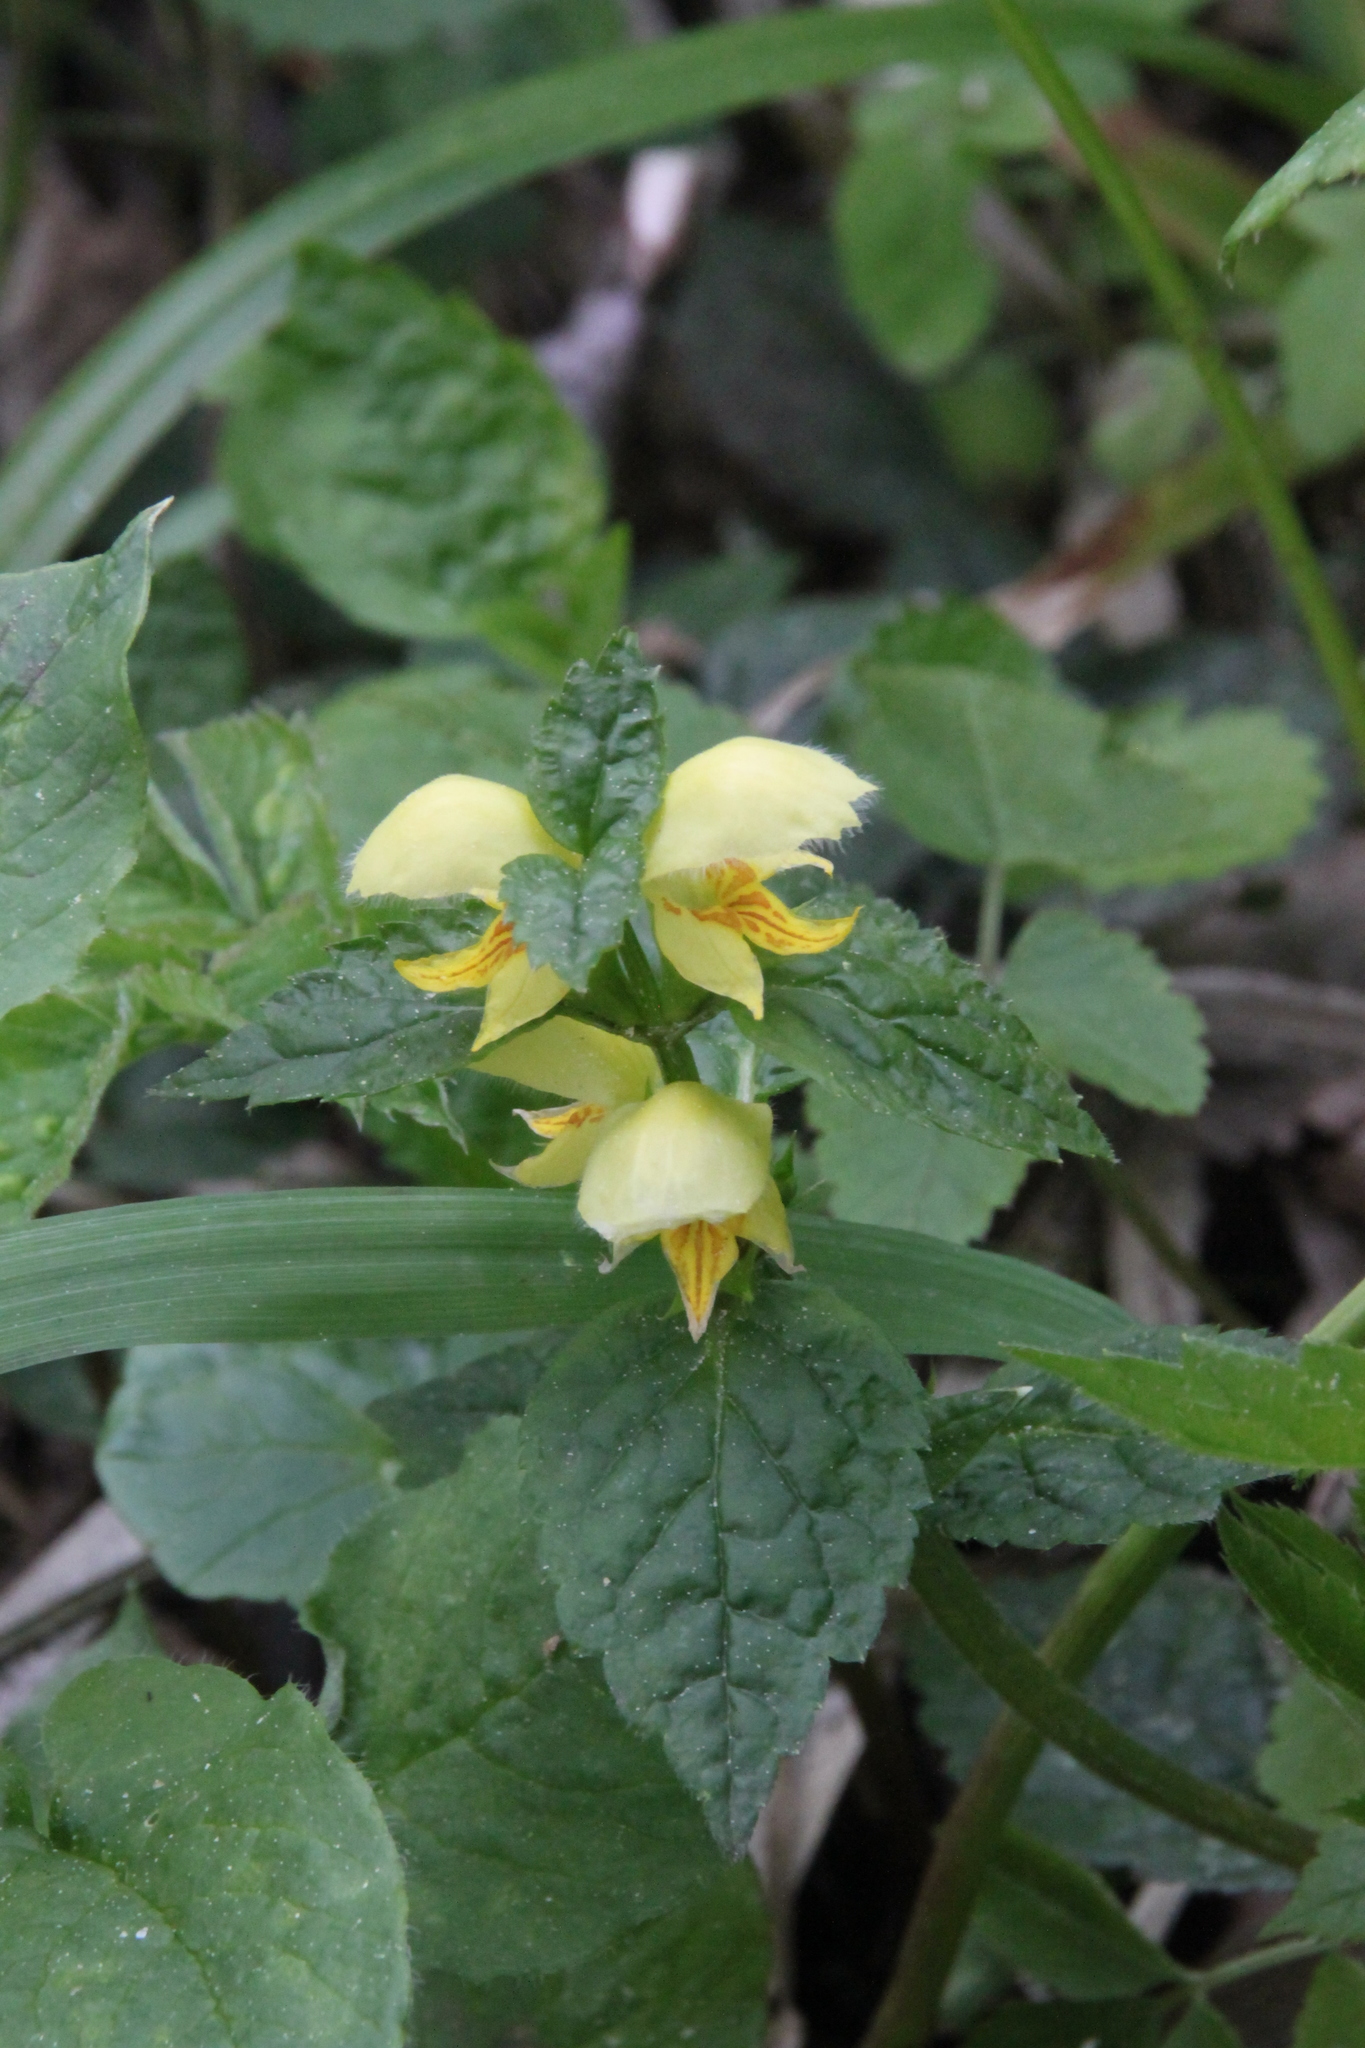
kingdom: Plantae
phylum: Tracheophyta
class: Magnoliopsida
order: Lamiales
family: Lamiaceae
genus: Lamium
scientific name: Lamium galeobdolon
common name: Yellow archangel
